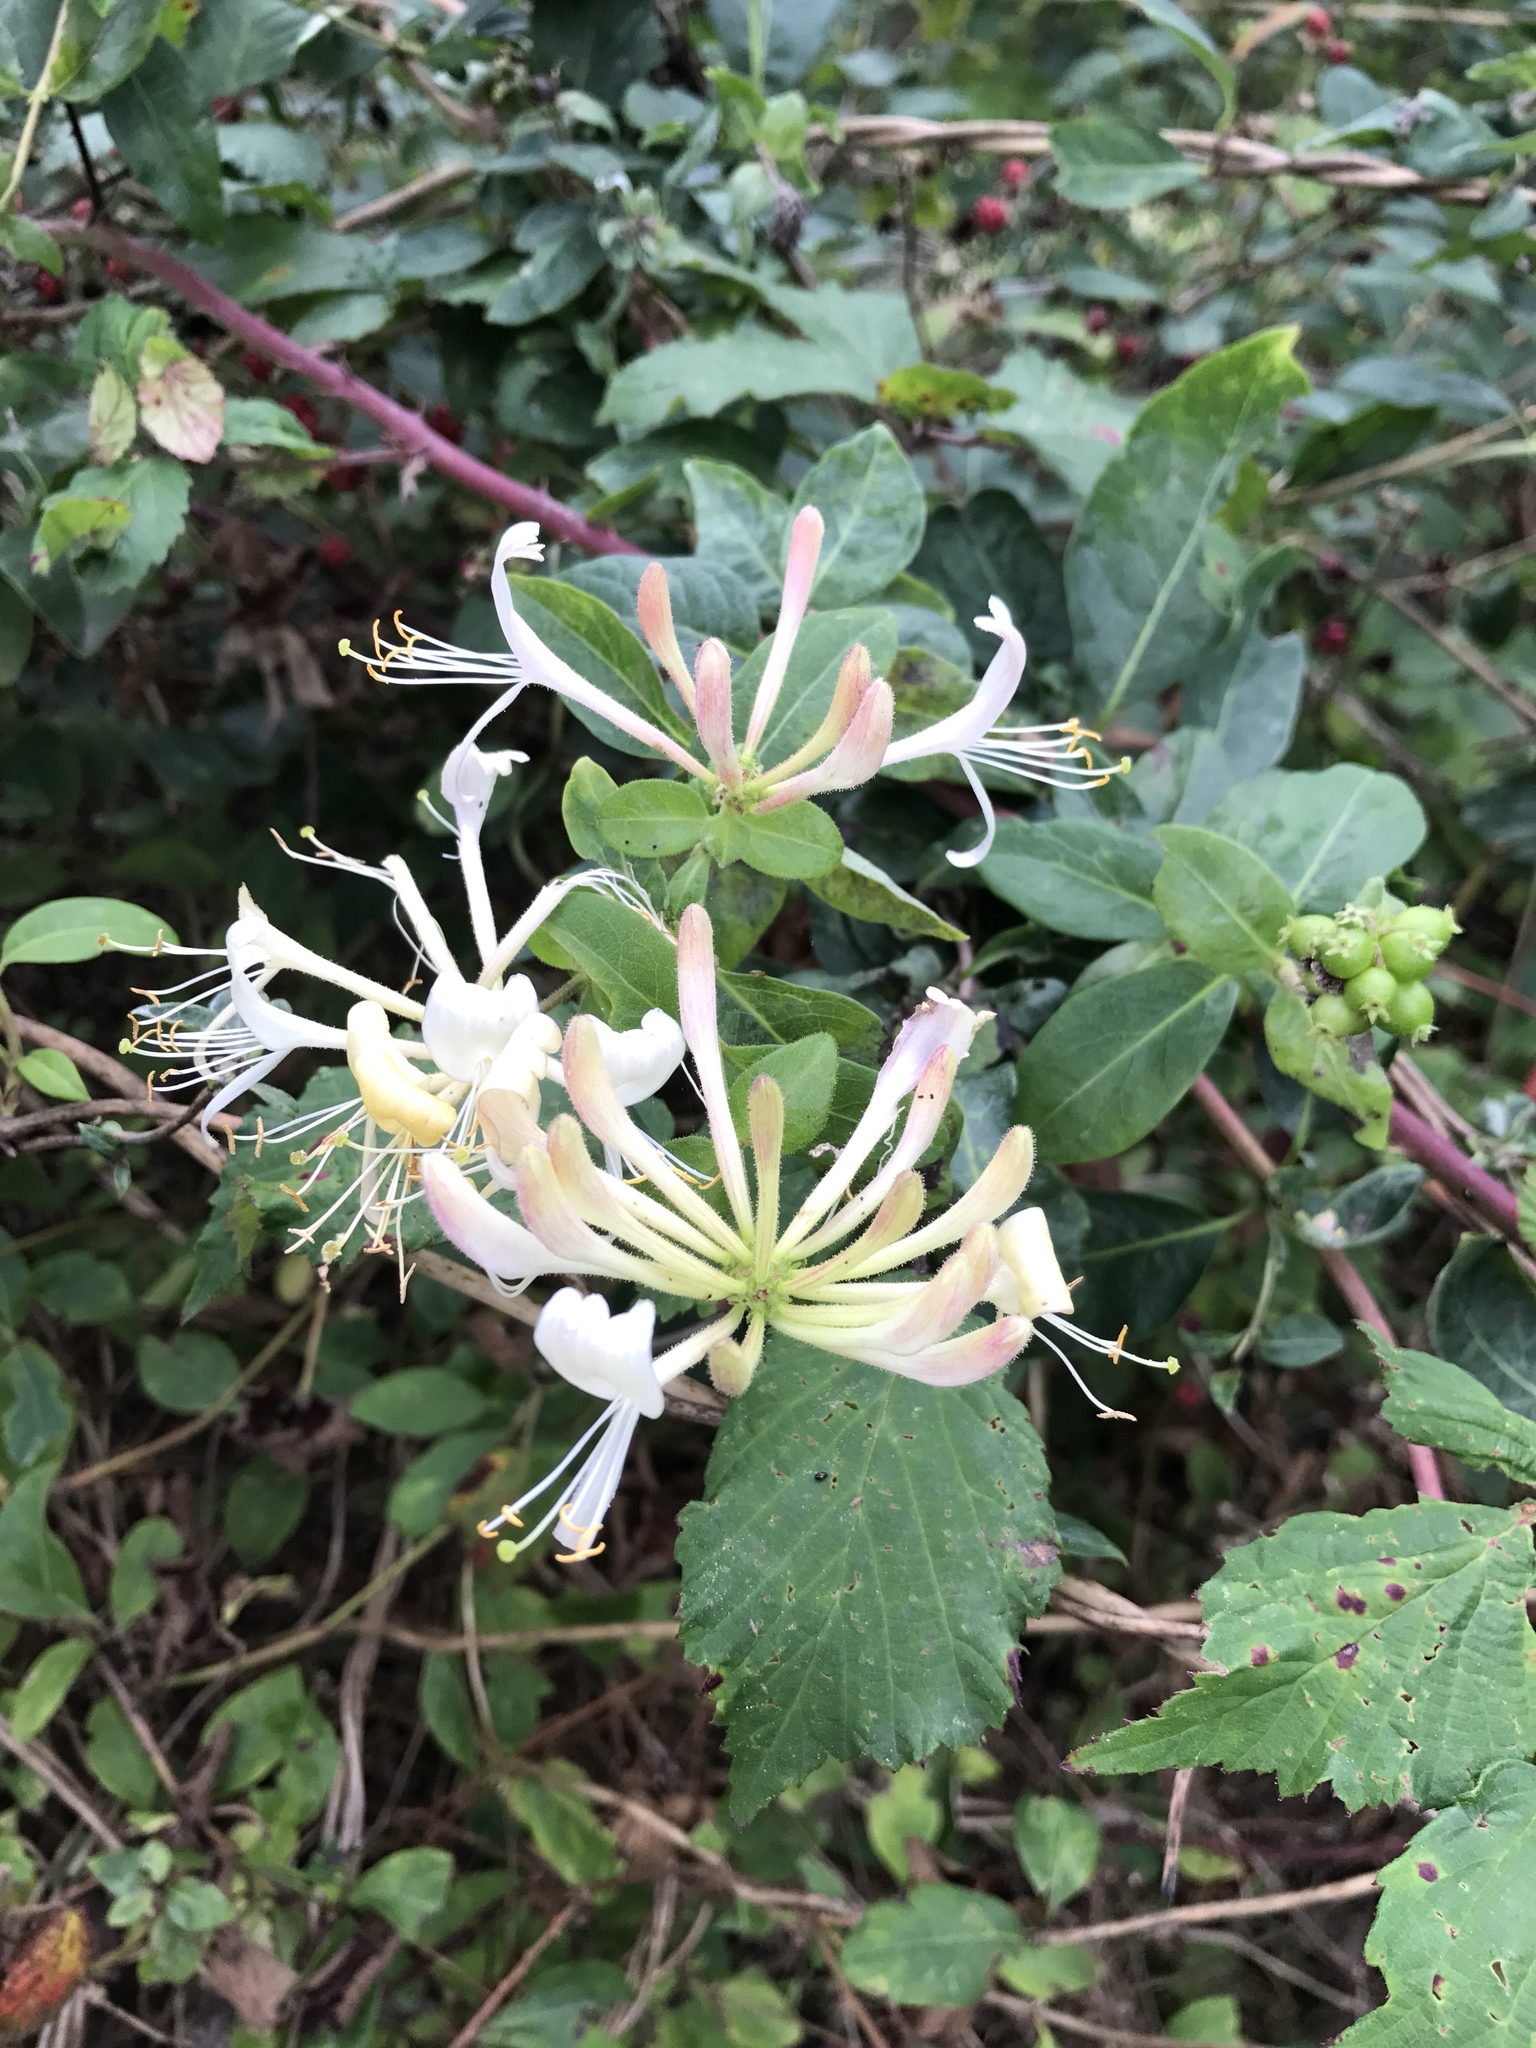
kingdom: Plantae
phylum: Tracheophyta
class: Magnoliopsida
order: Dipsacales
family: Caprifoliaceae
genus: Lonicera
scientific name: Lonicera periclymenum
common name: European honeysuckle
